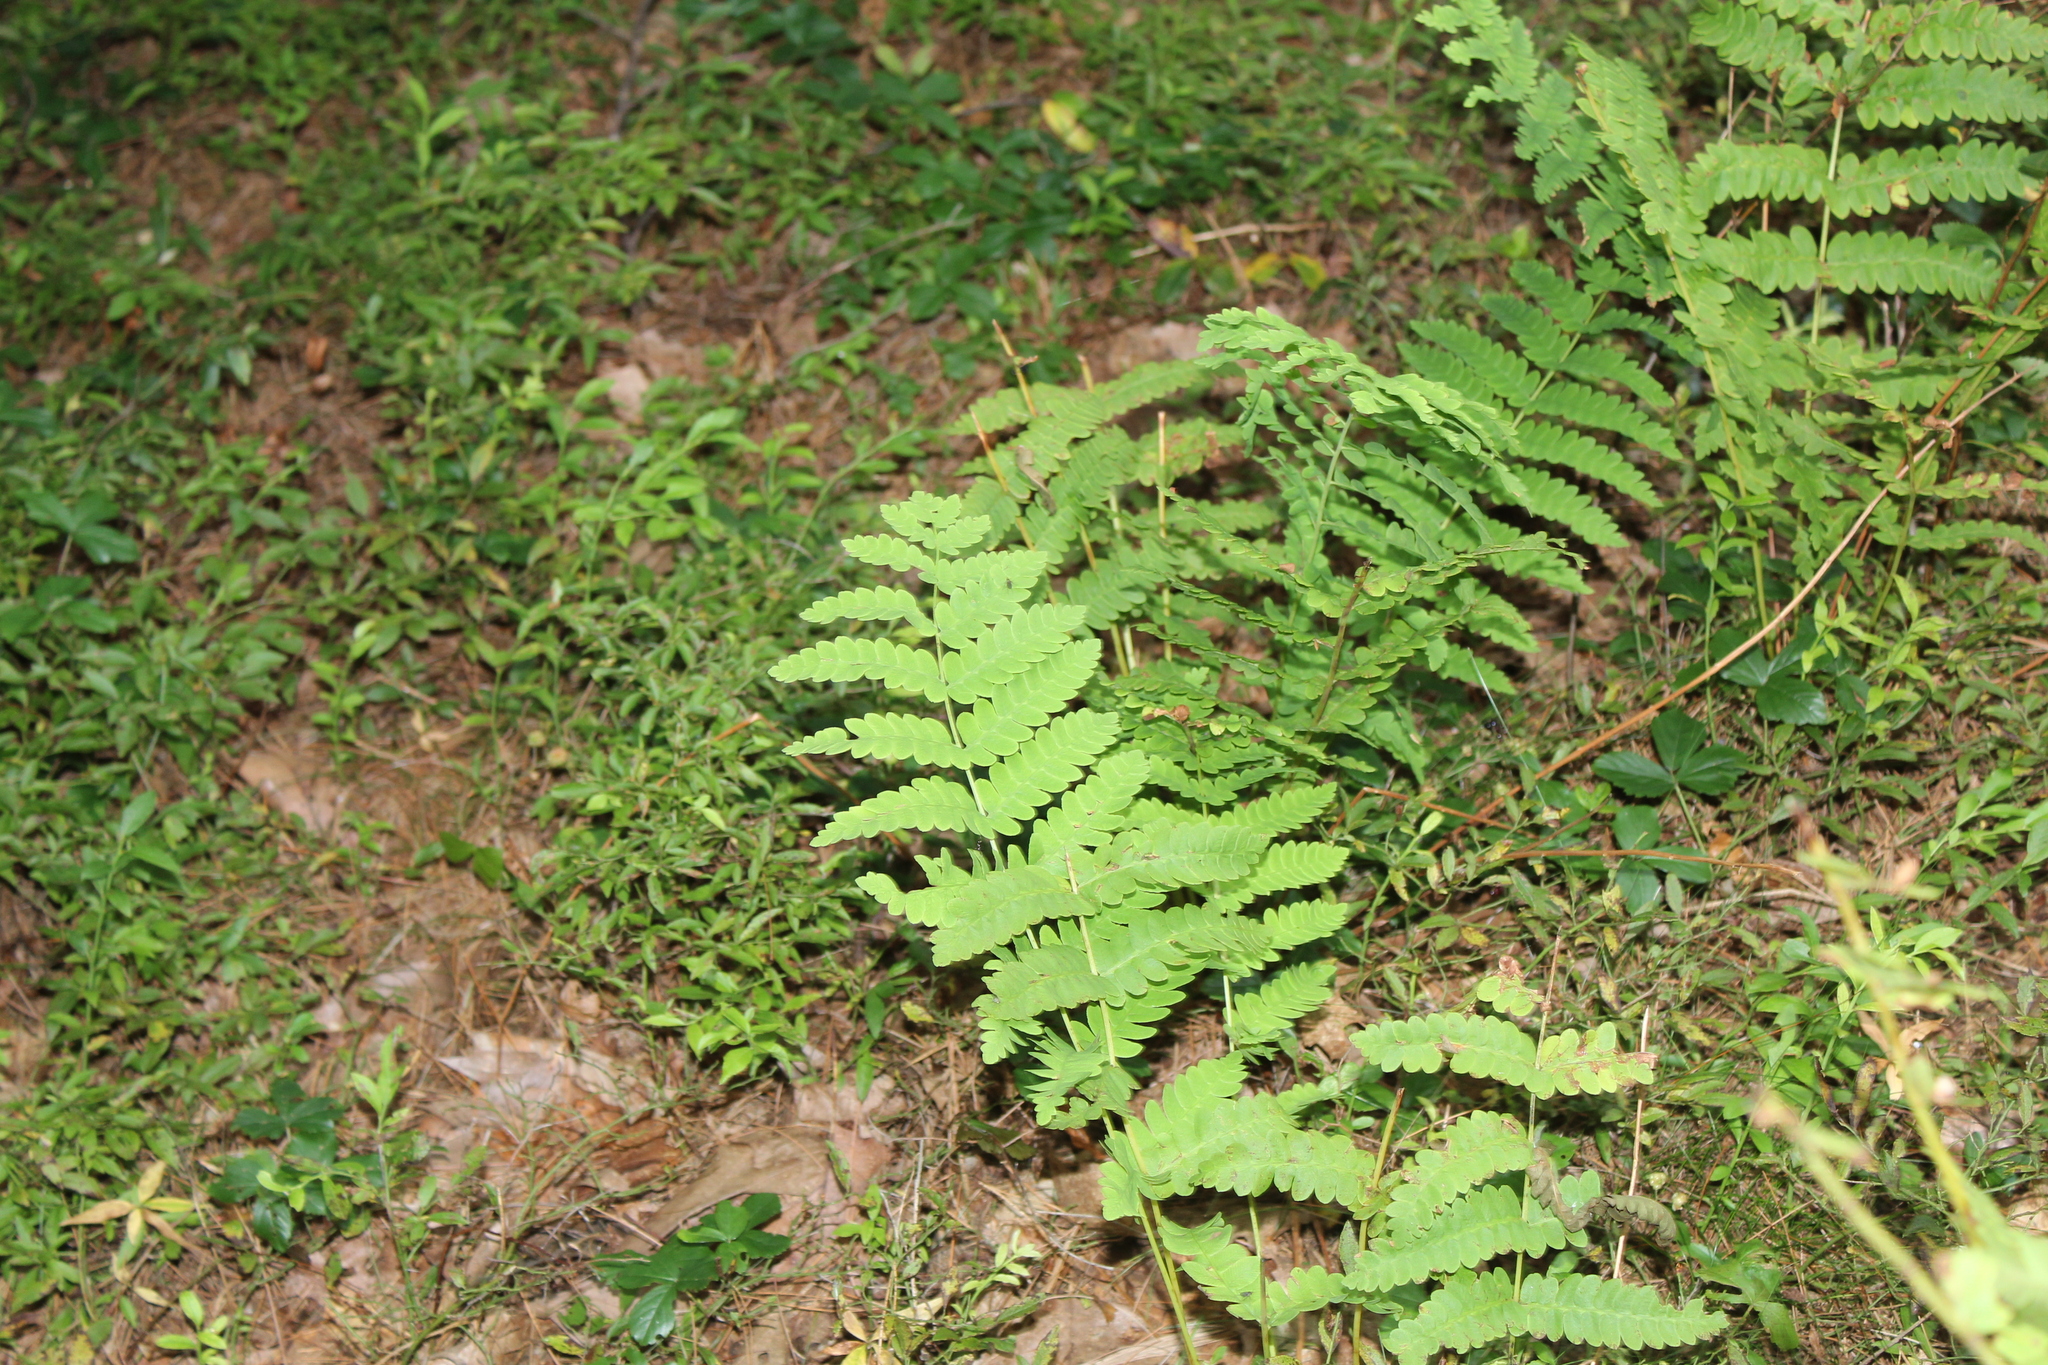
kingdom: Plantae
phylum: Tracheophyta
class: Polypodiopsida
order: Osmundales
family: Osmundaceae
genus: Claytosmunda
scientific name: Claytosmunda claytoniana
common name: Clayton's fern
